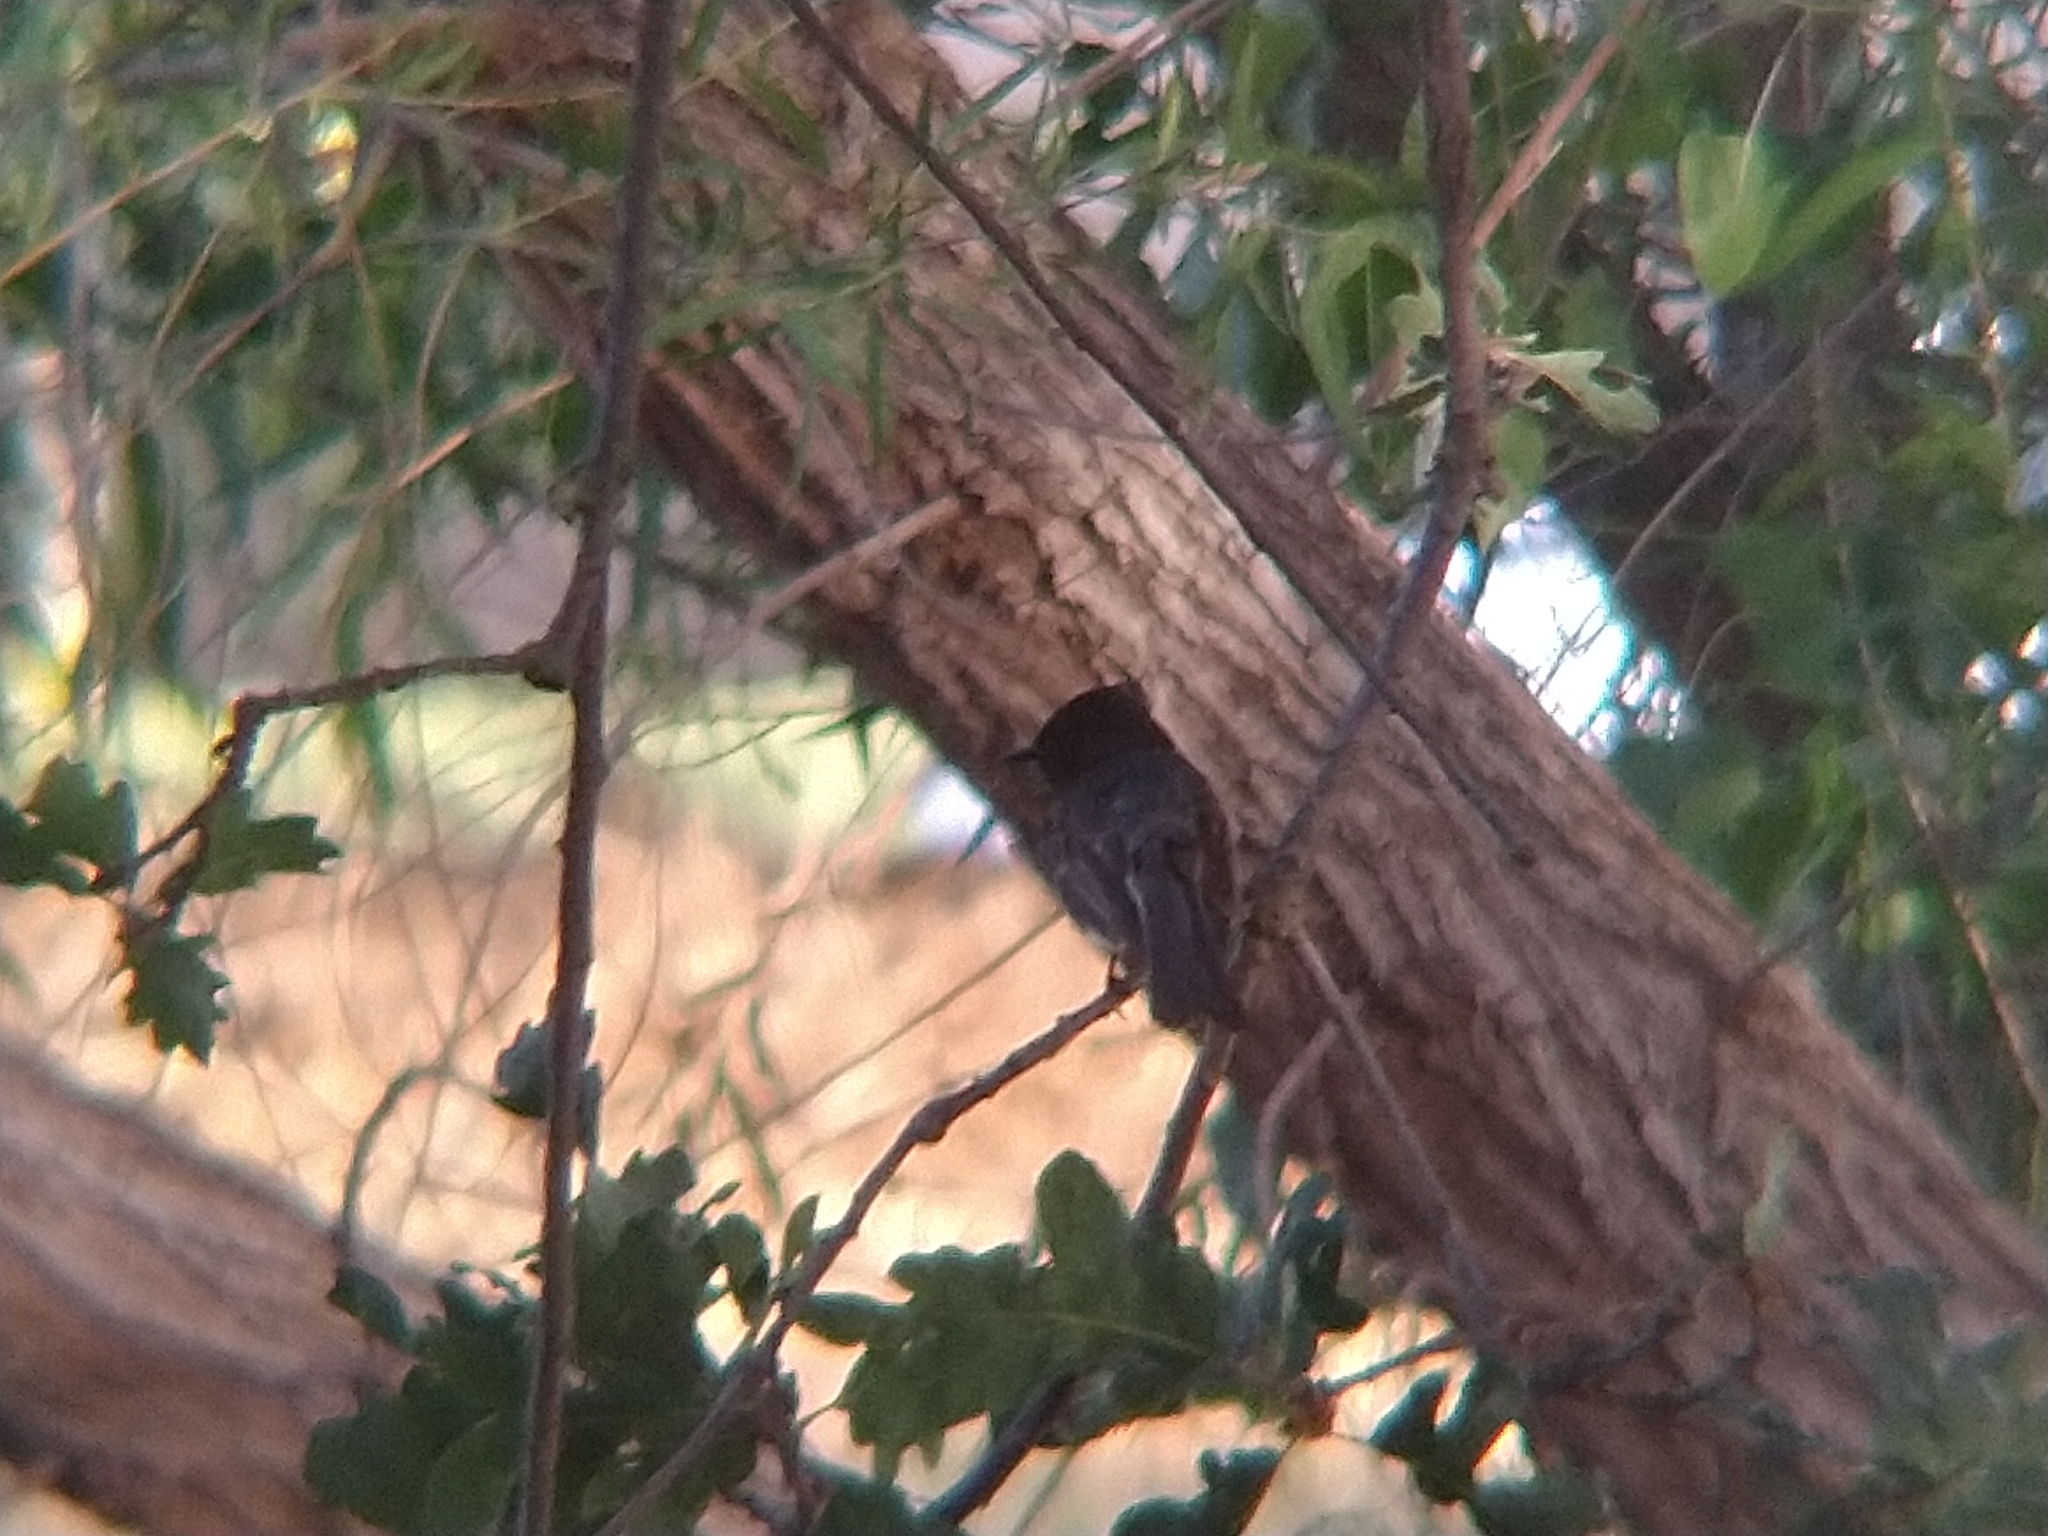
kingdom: Animalia
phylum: Chordata
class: Aves
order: Passeriformes
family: Tyrannidae
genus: Sayornis
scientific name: Sayornis nigricans
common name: Black phoebe
